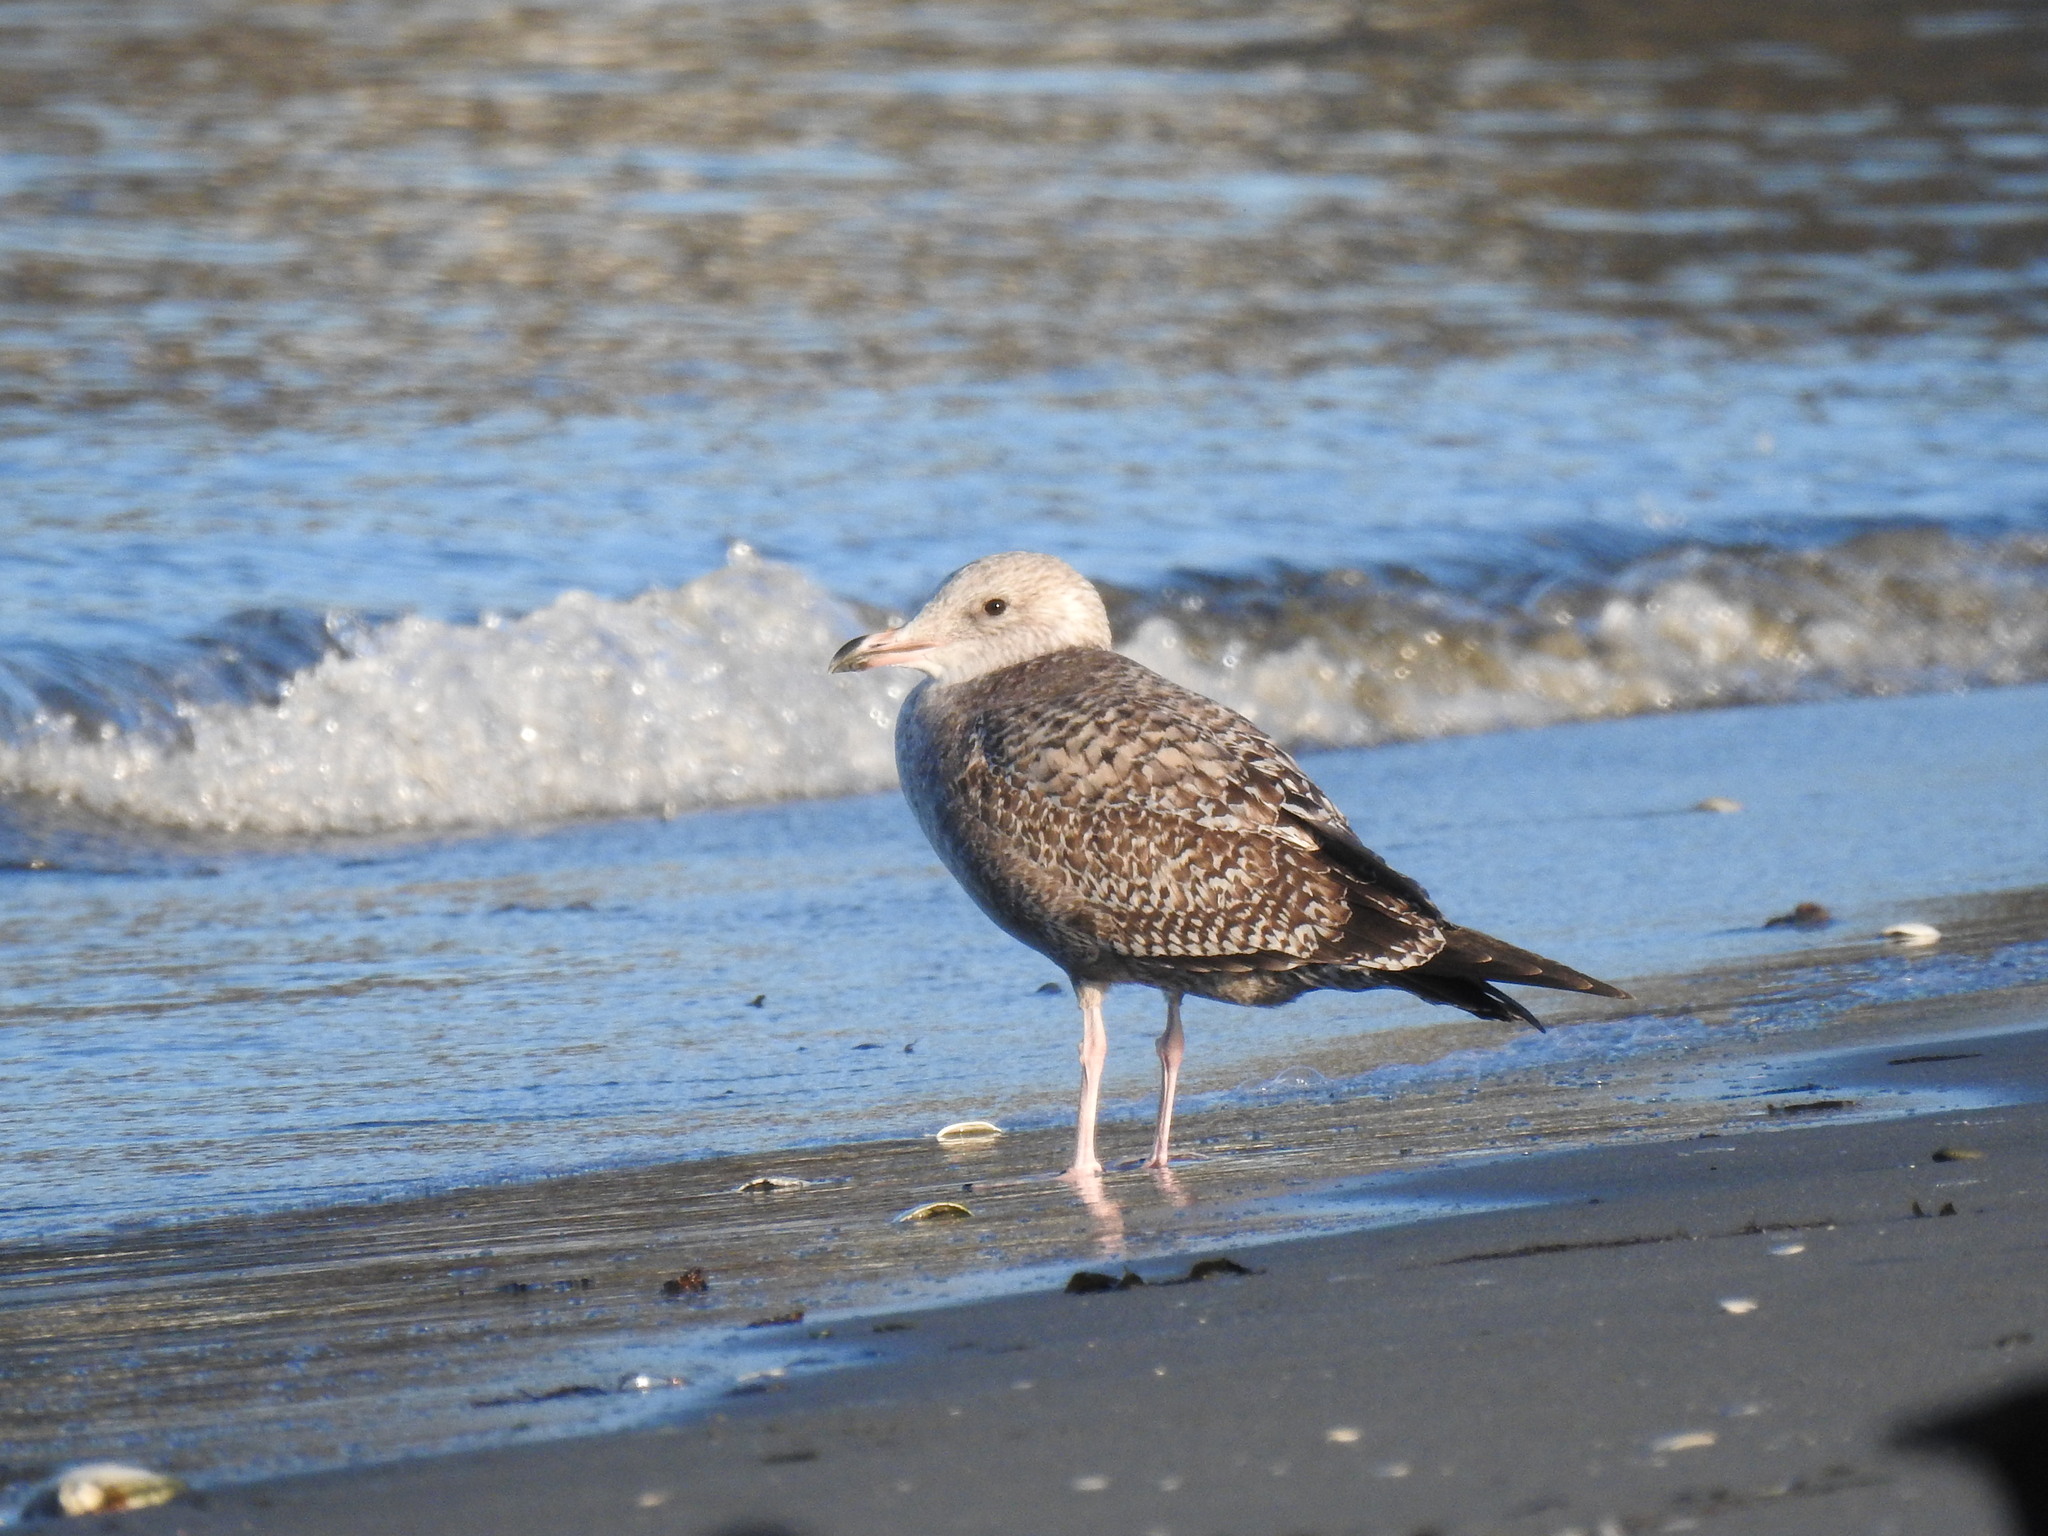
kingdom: Animalia
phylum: Chordata
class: Aves
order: Charadriiformes
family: Laridae
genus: Larus
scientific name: Larus argentatus
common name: Herring gull
